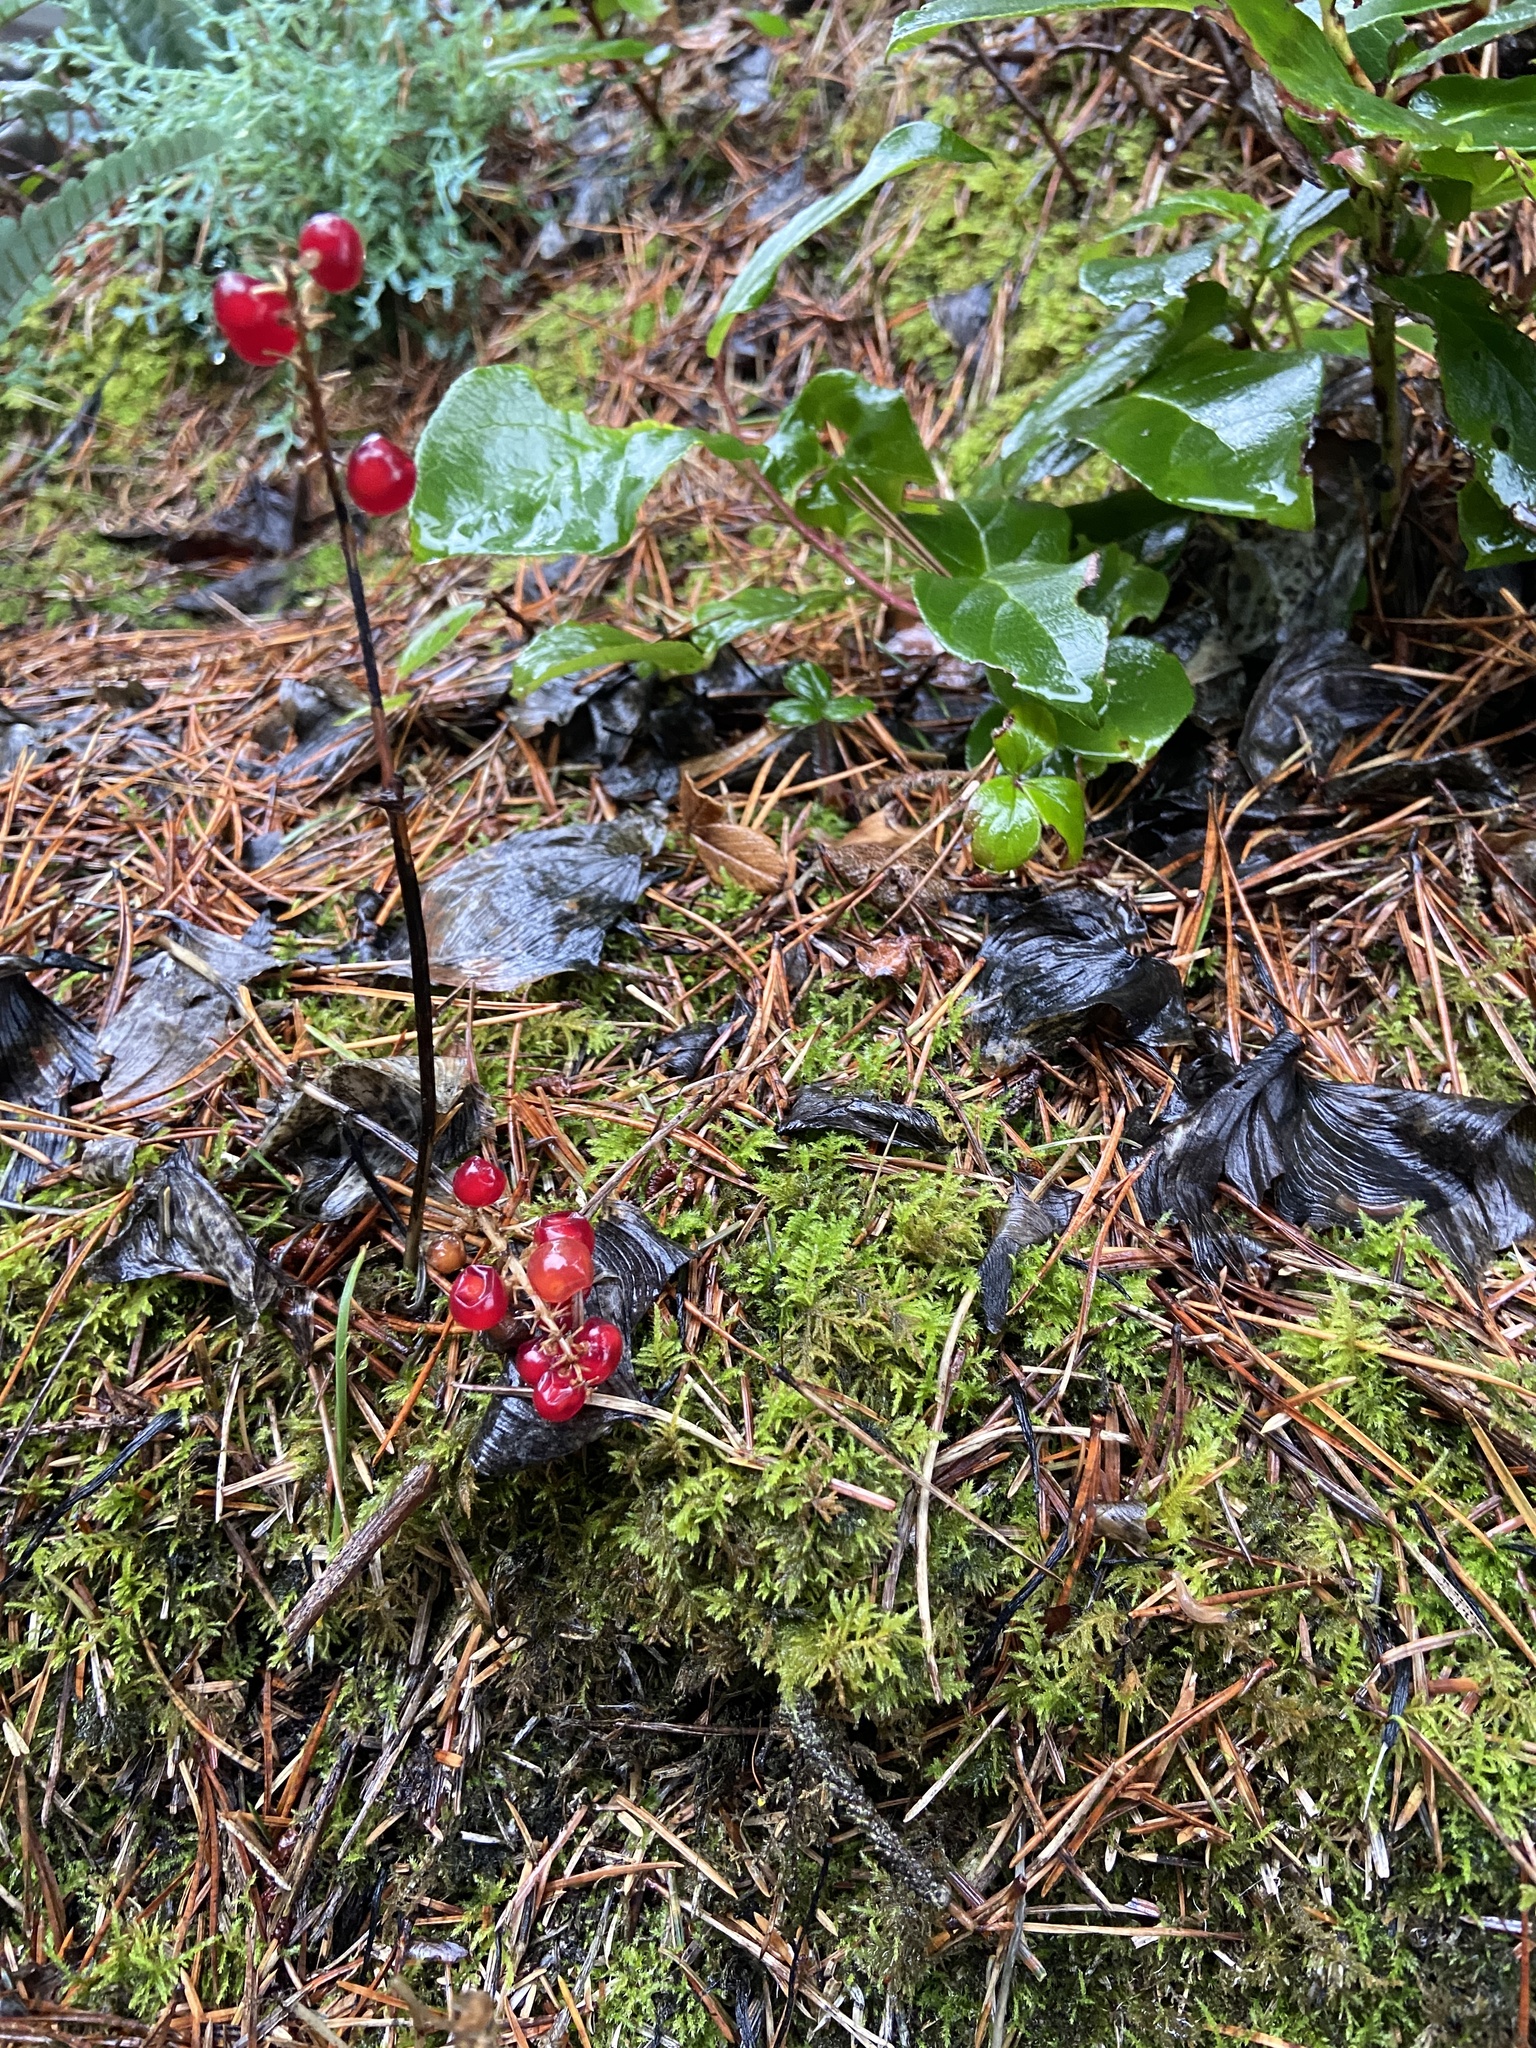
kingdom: Plantae
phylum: Tracheophyta
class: Liliopsida
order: Asparagales
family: Asparagaceae
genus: Maianthemum
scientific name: Maianthemum dilatatum
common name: False lily-of-the-valley
